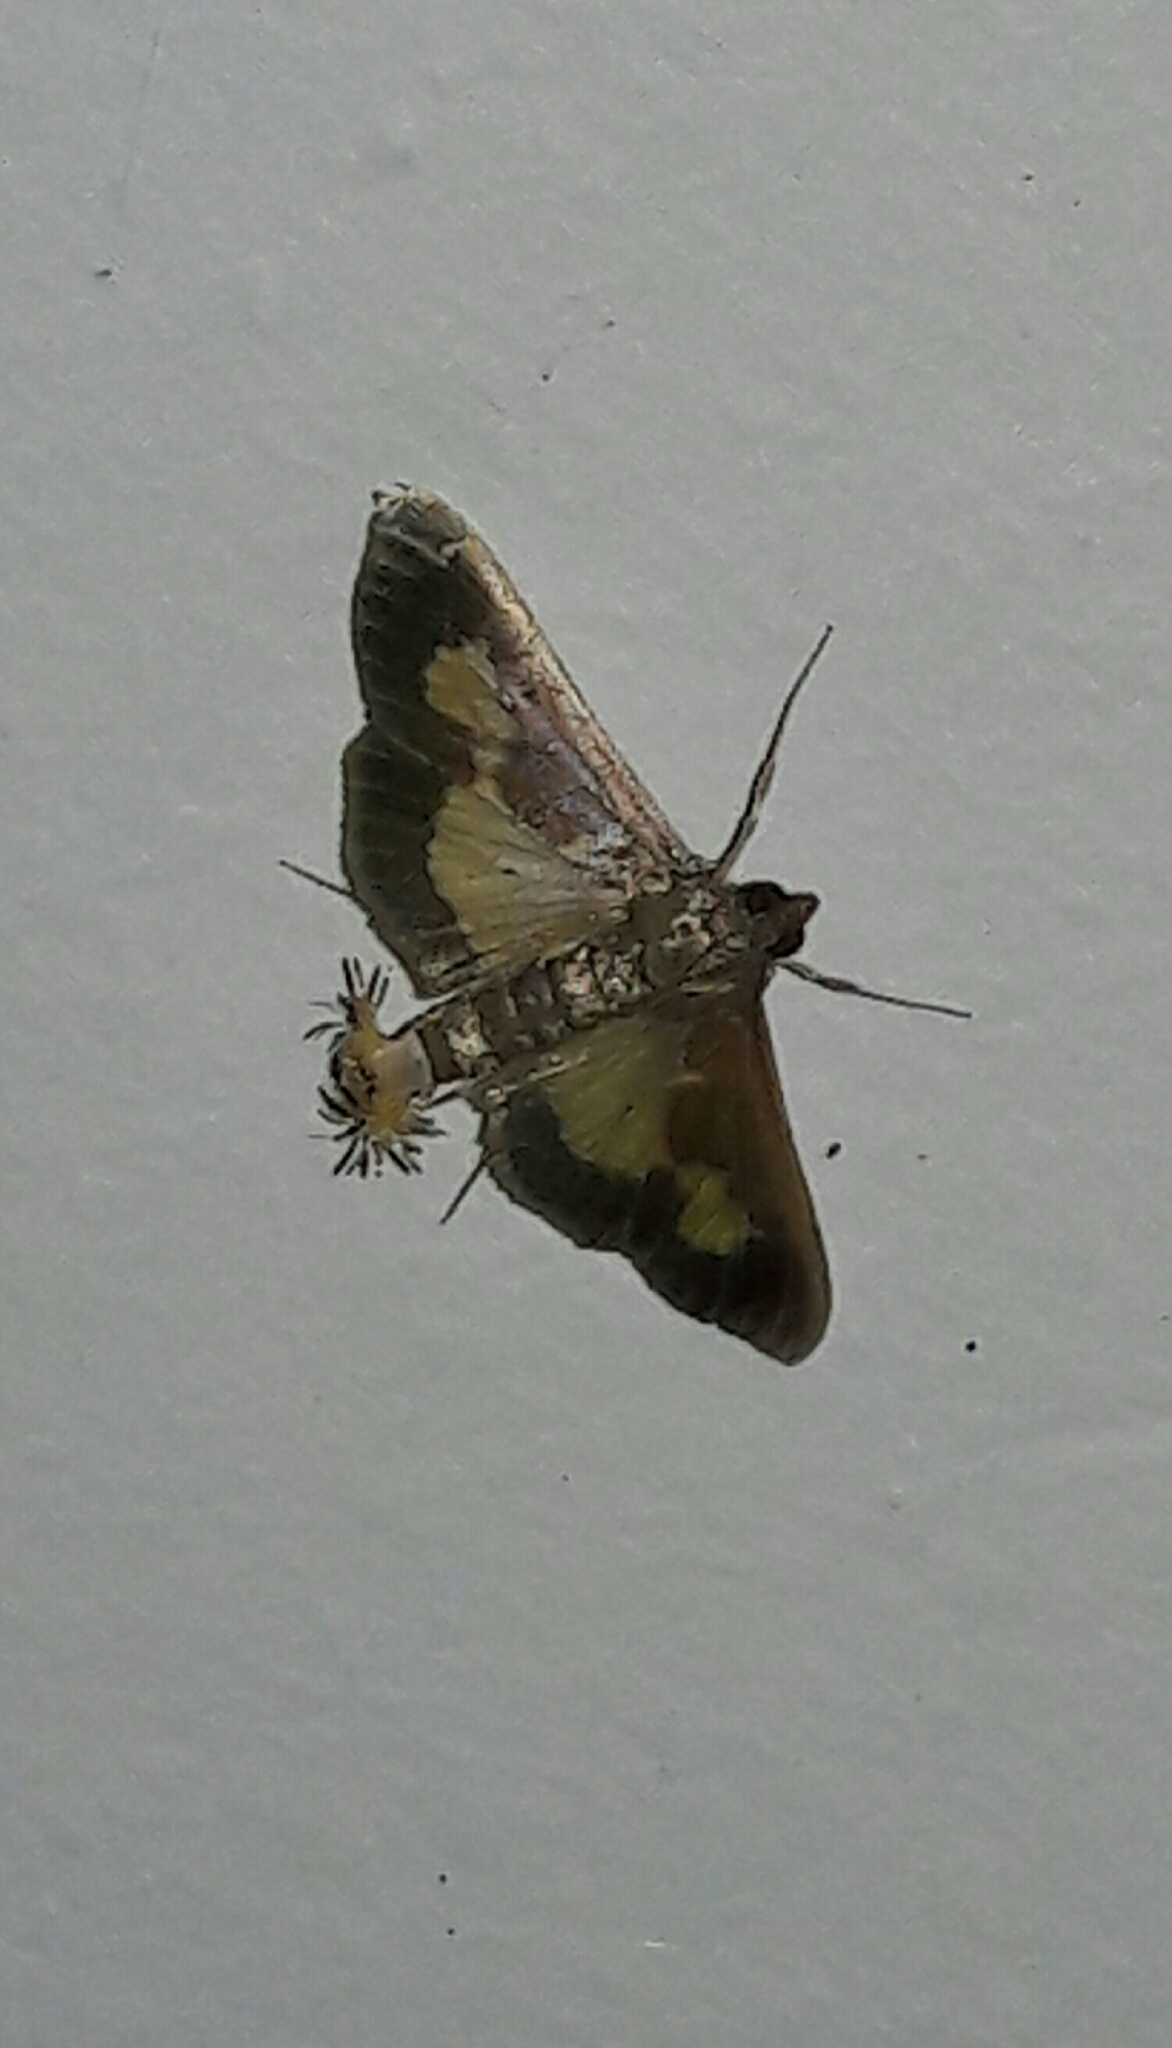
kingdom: Animalia
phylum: Arthropoda
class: Insecta
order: Lepidoptera
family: Crambidae
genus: Cryptographis
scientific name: Cryptographis nitidalis
